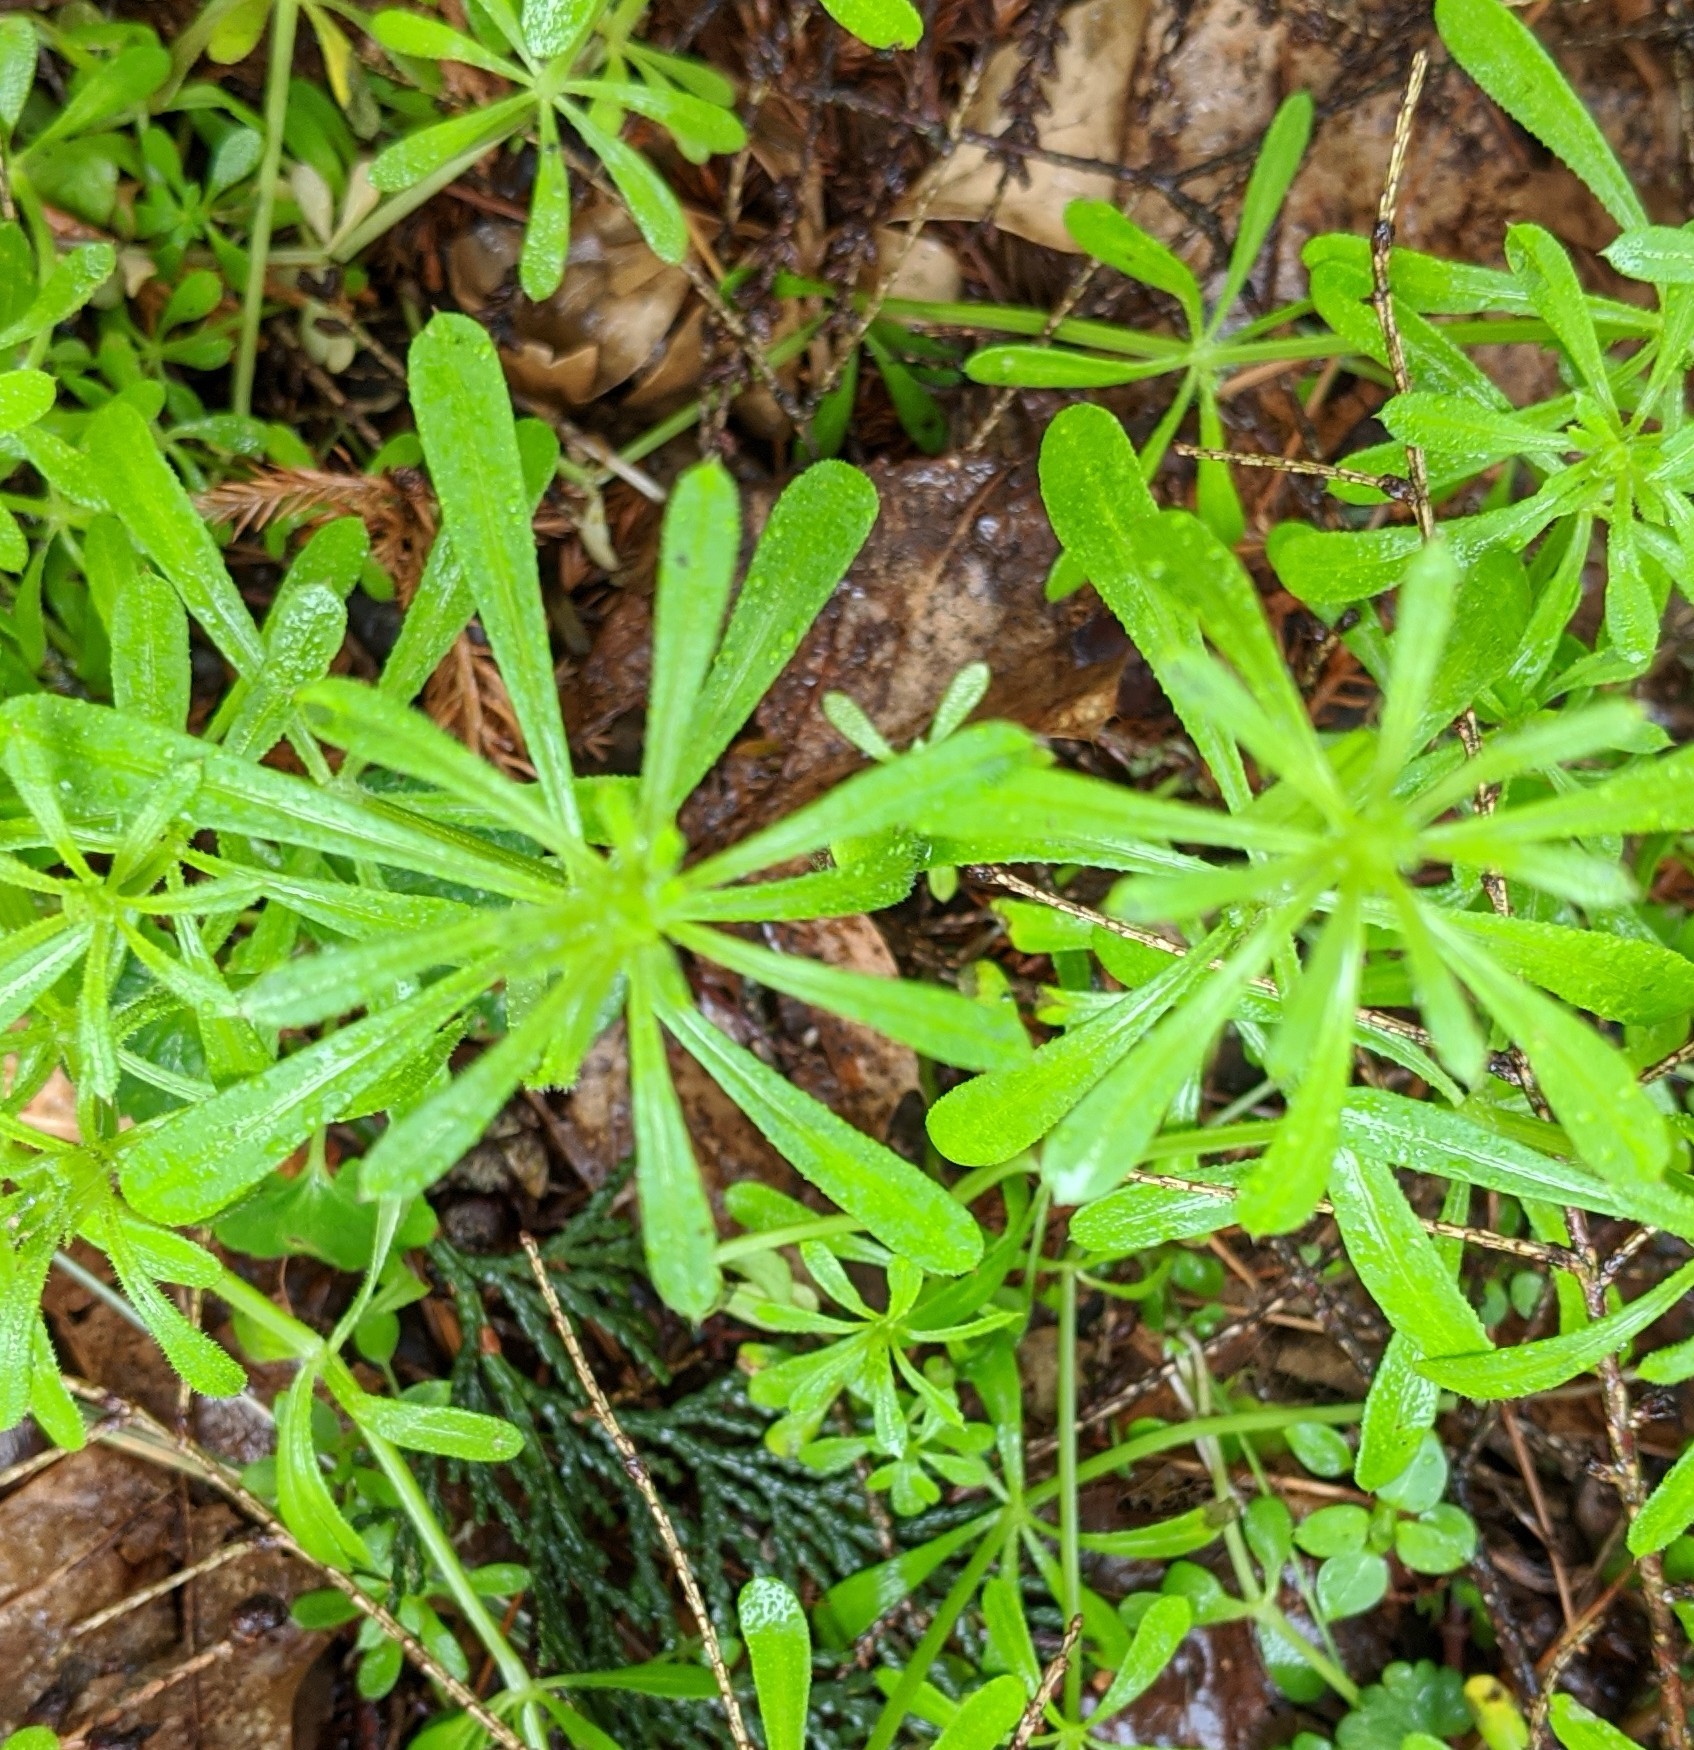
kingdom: Plantae
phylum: Tracheophyta
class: Magnoliopsida
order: Gentianales
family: Rubiaceae
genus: Galium
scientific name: Galium aparine
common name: Cleavers
